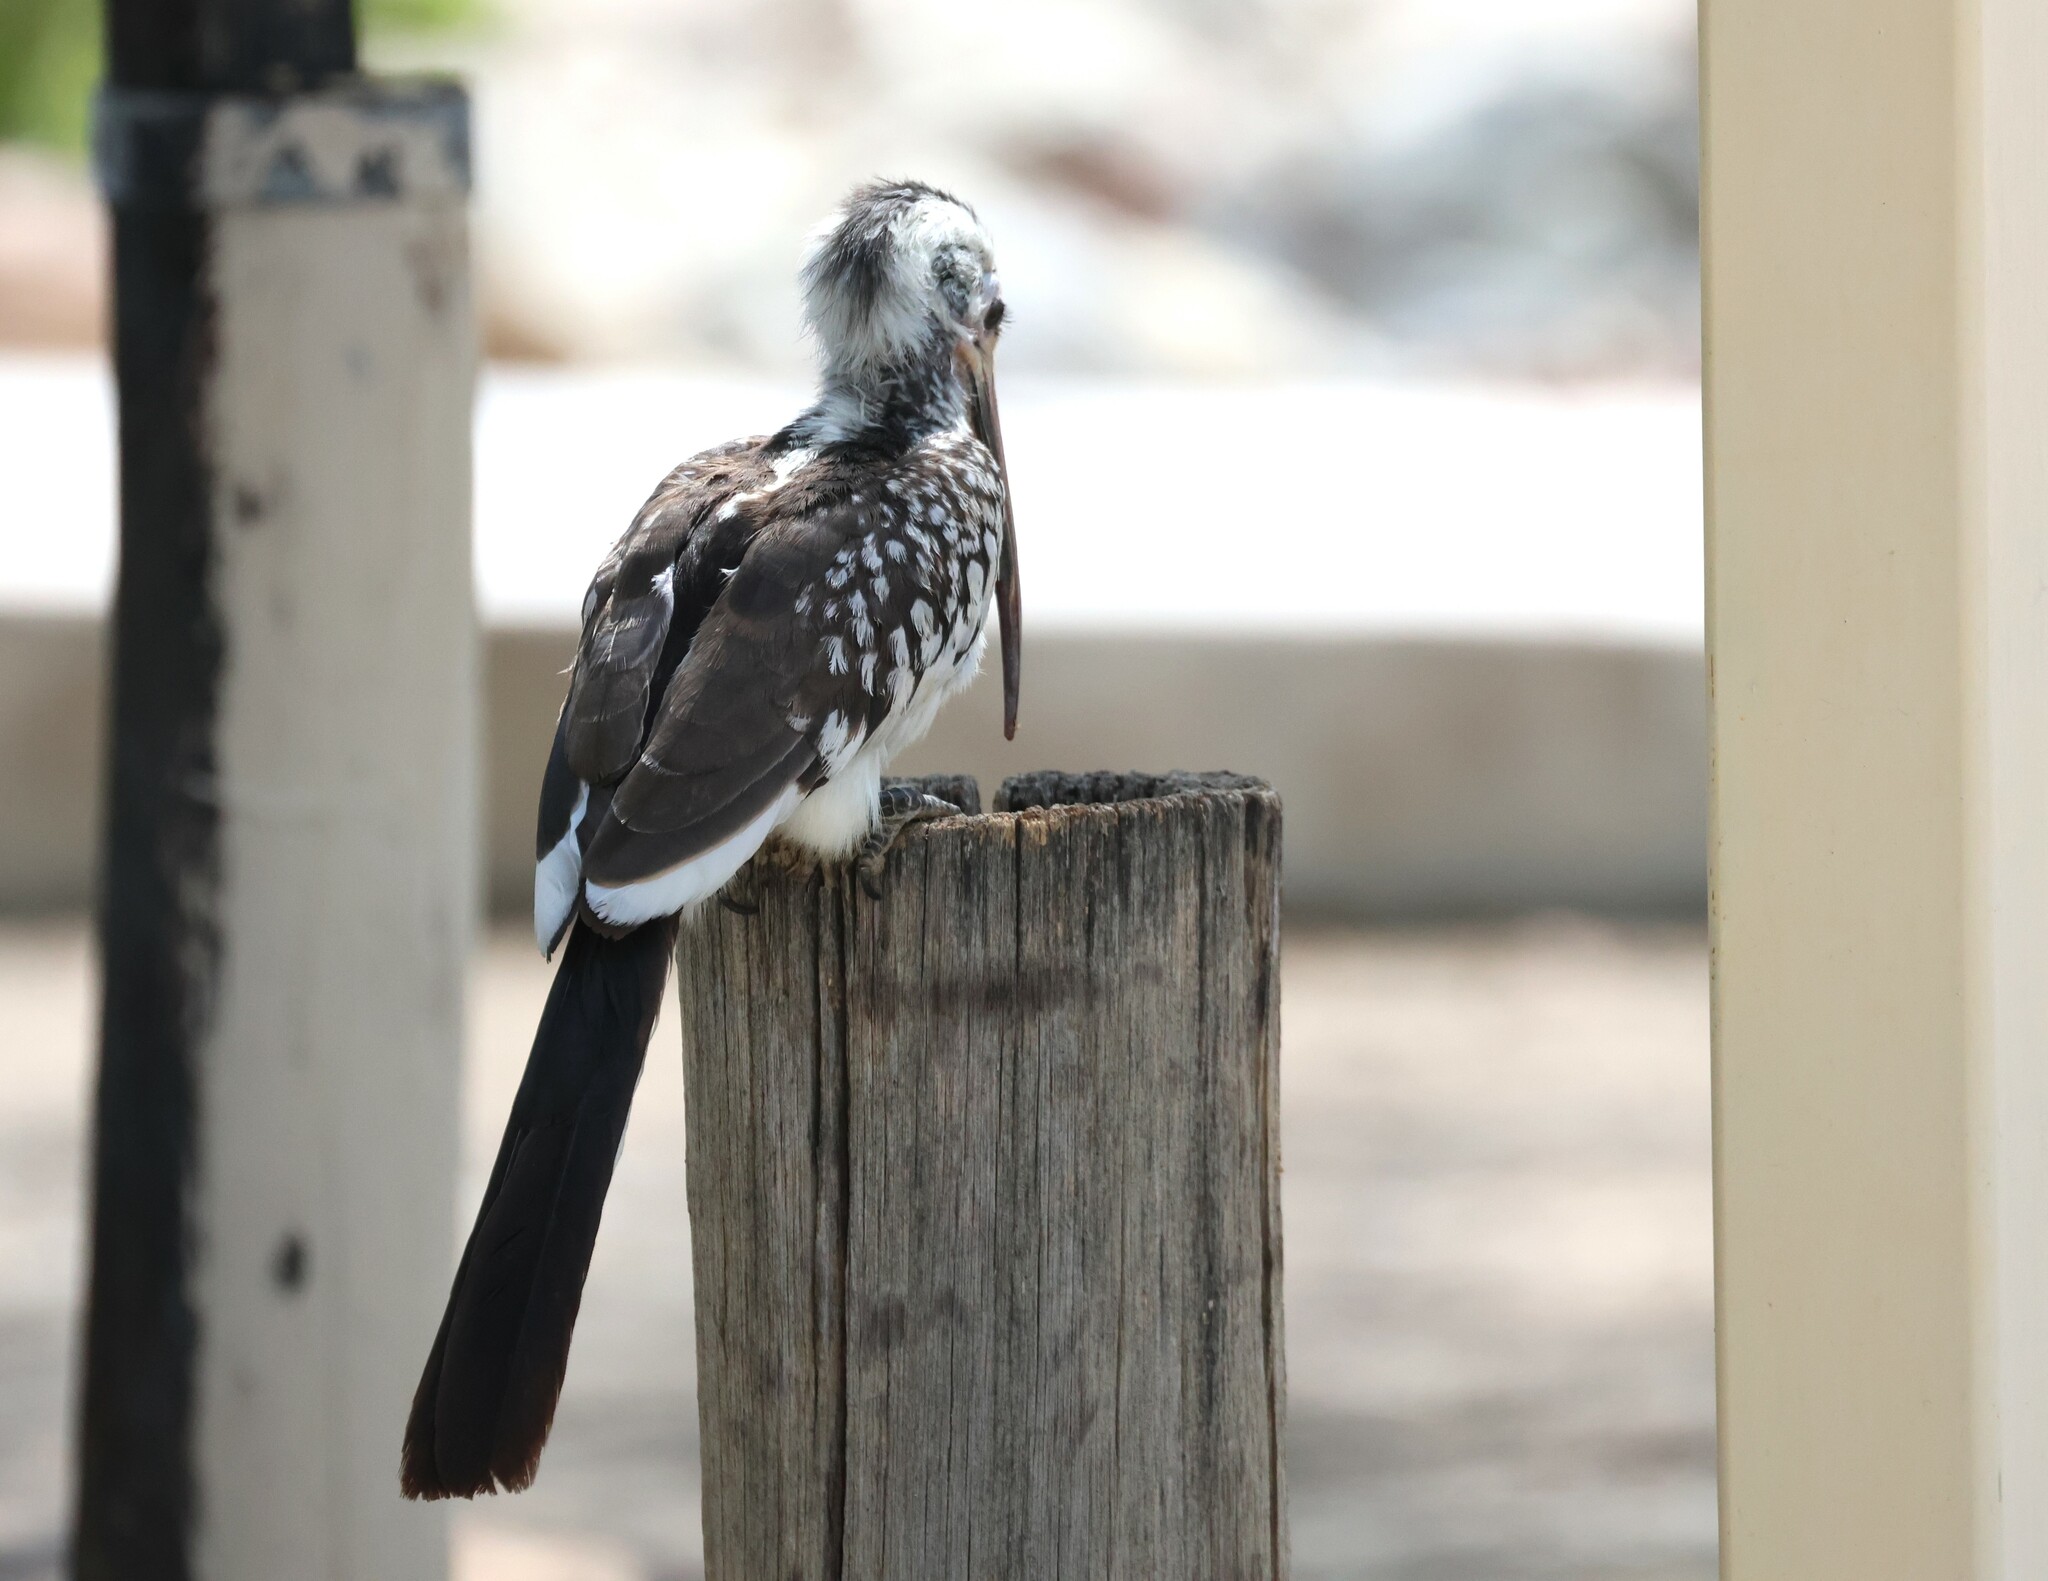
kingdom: Animalia
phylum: Chordata
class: Aves
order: Bucerotiformes
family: Bucerotidae
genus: Tockus
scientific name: Tockus rufirostris
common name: Southern red-billed hornbill
